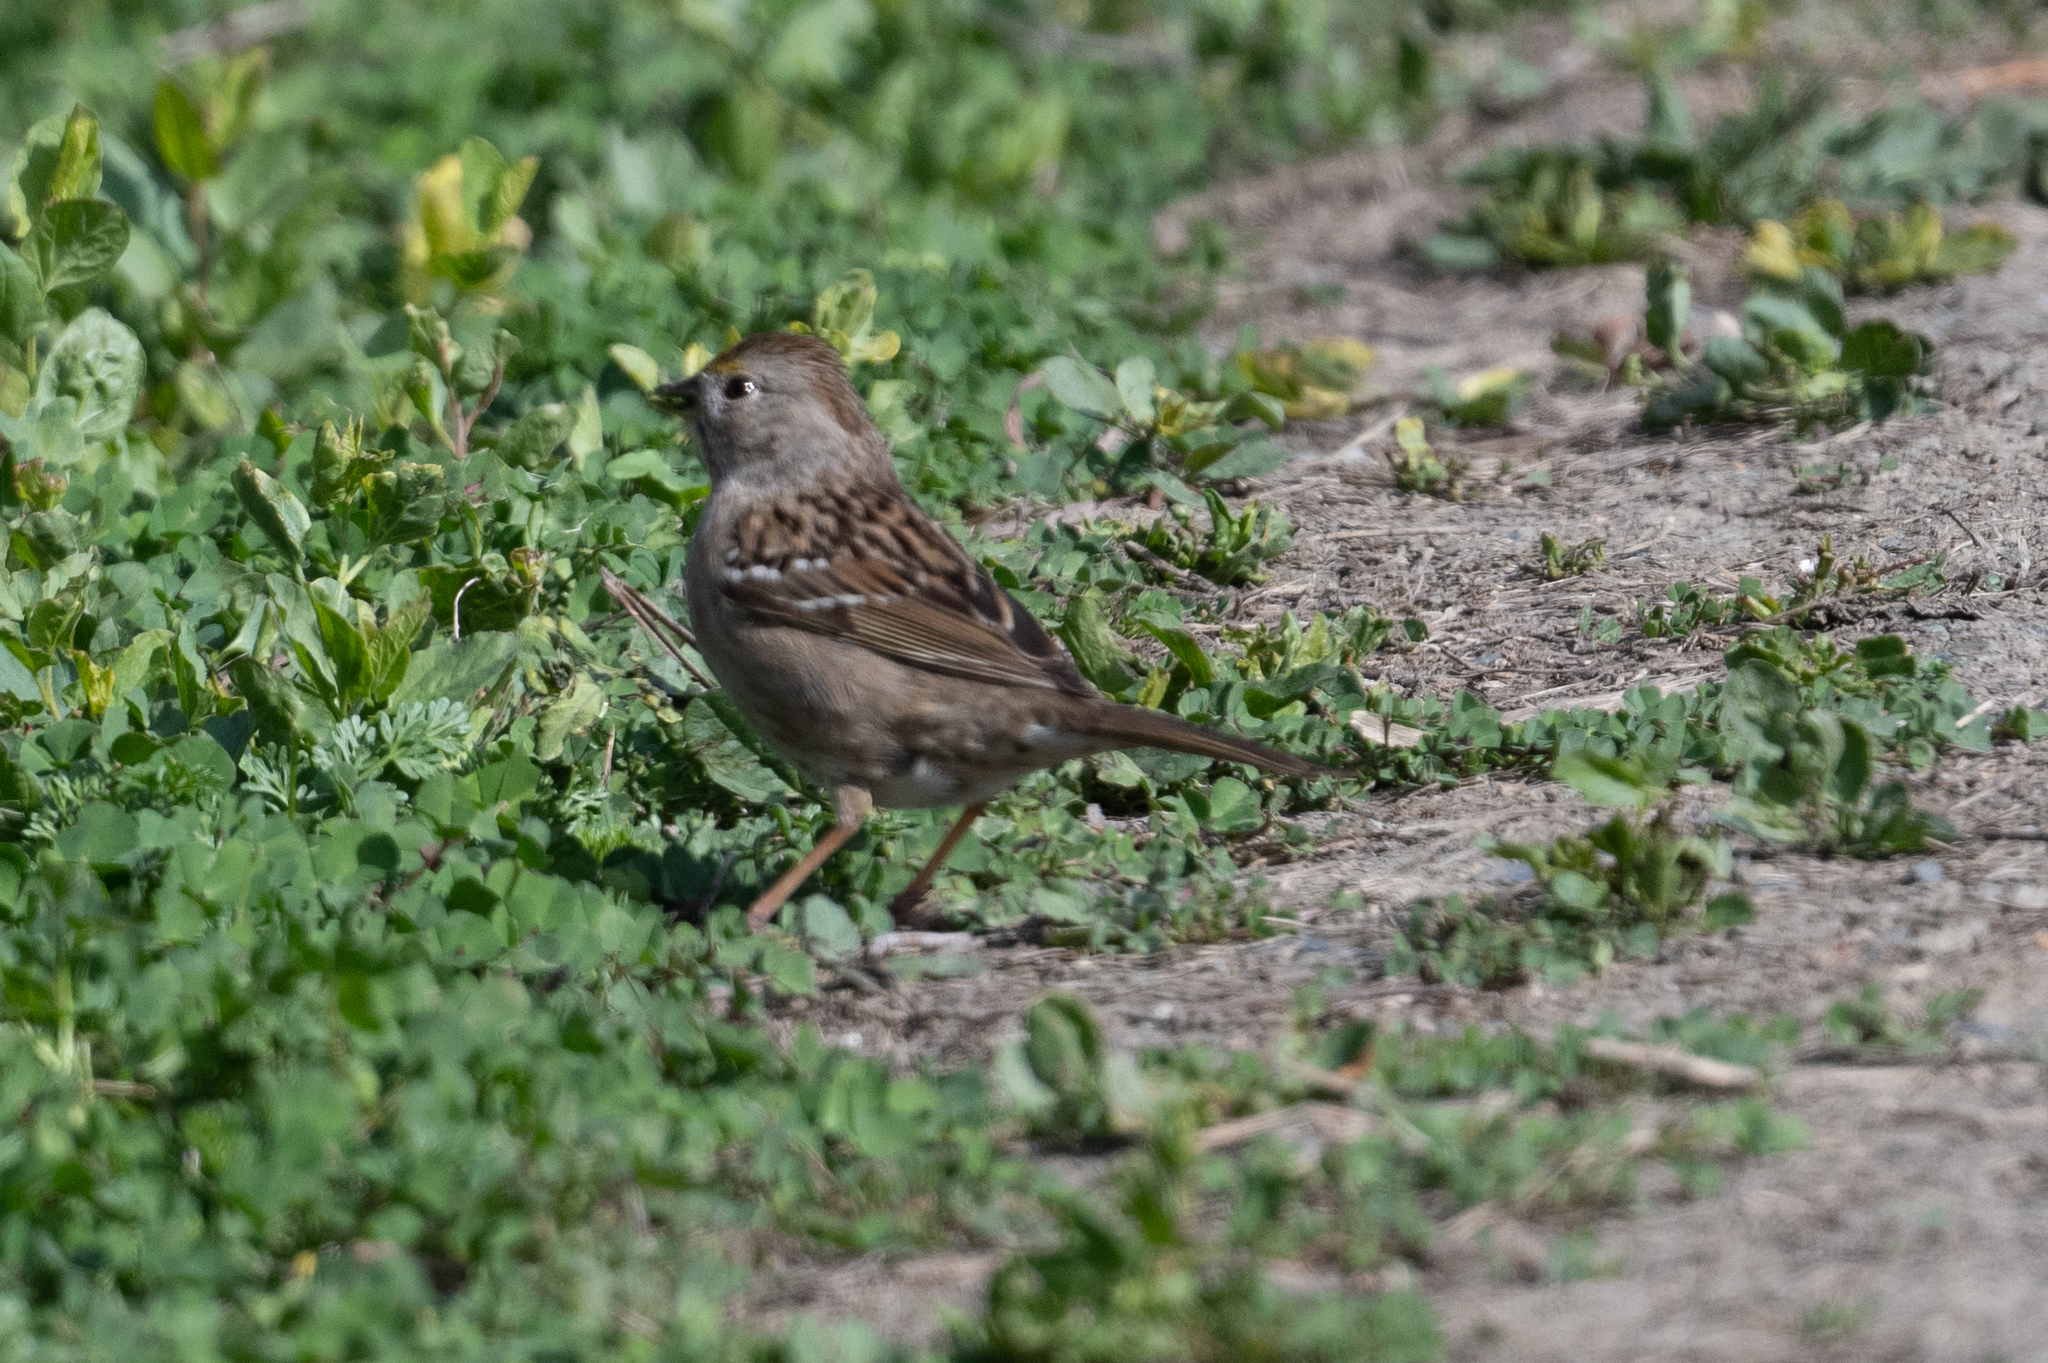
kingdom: Animalia
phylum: Chordata
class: Aves
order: Passeriformes
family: Passerellidae
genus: Zonotrichia
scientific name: Zonotrichia atricapilla
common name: Golden-crowned sparrow
